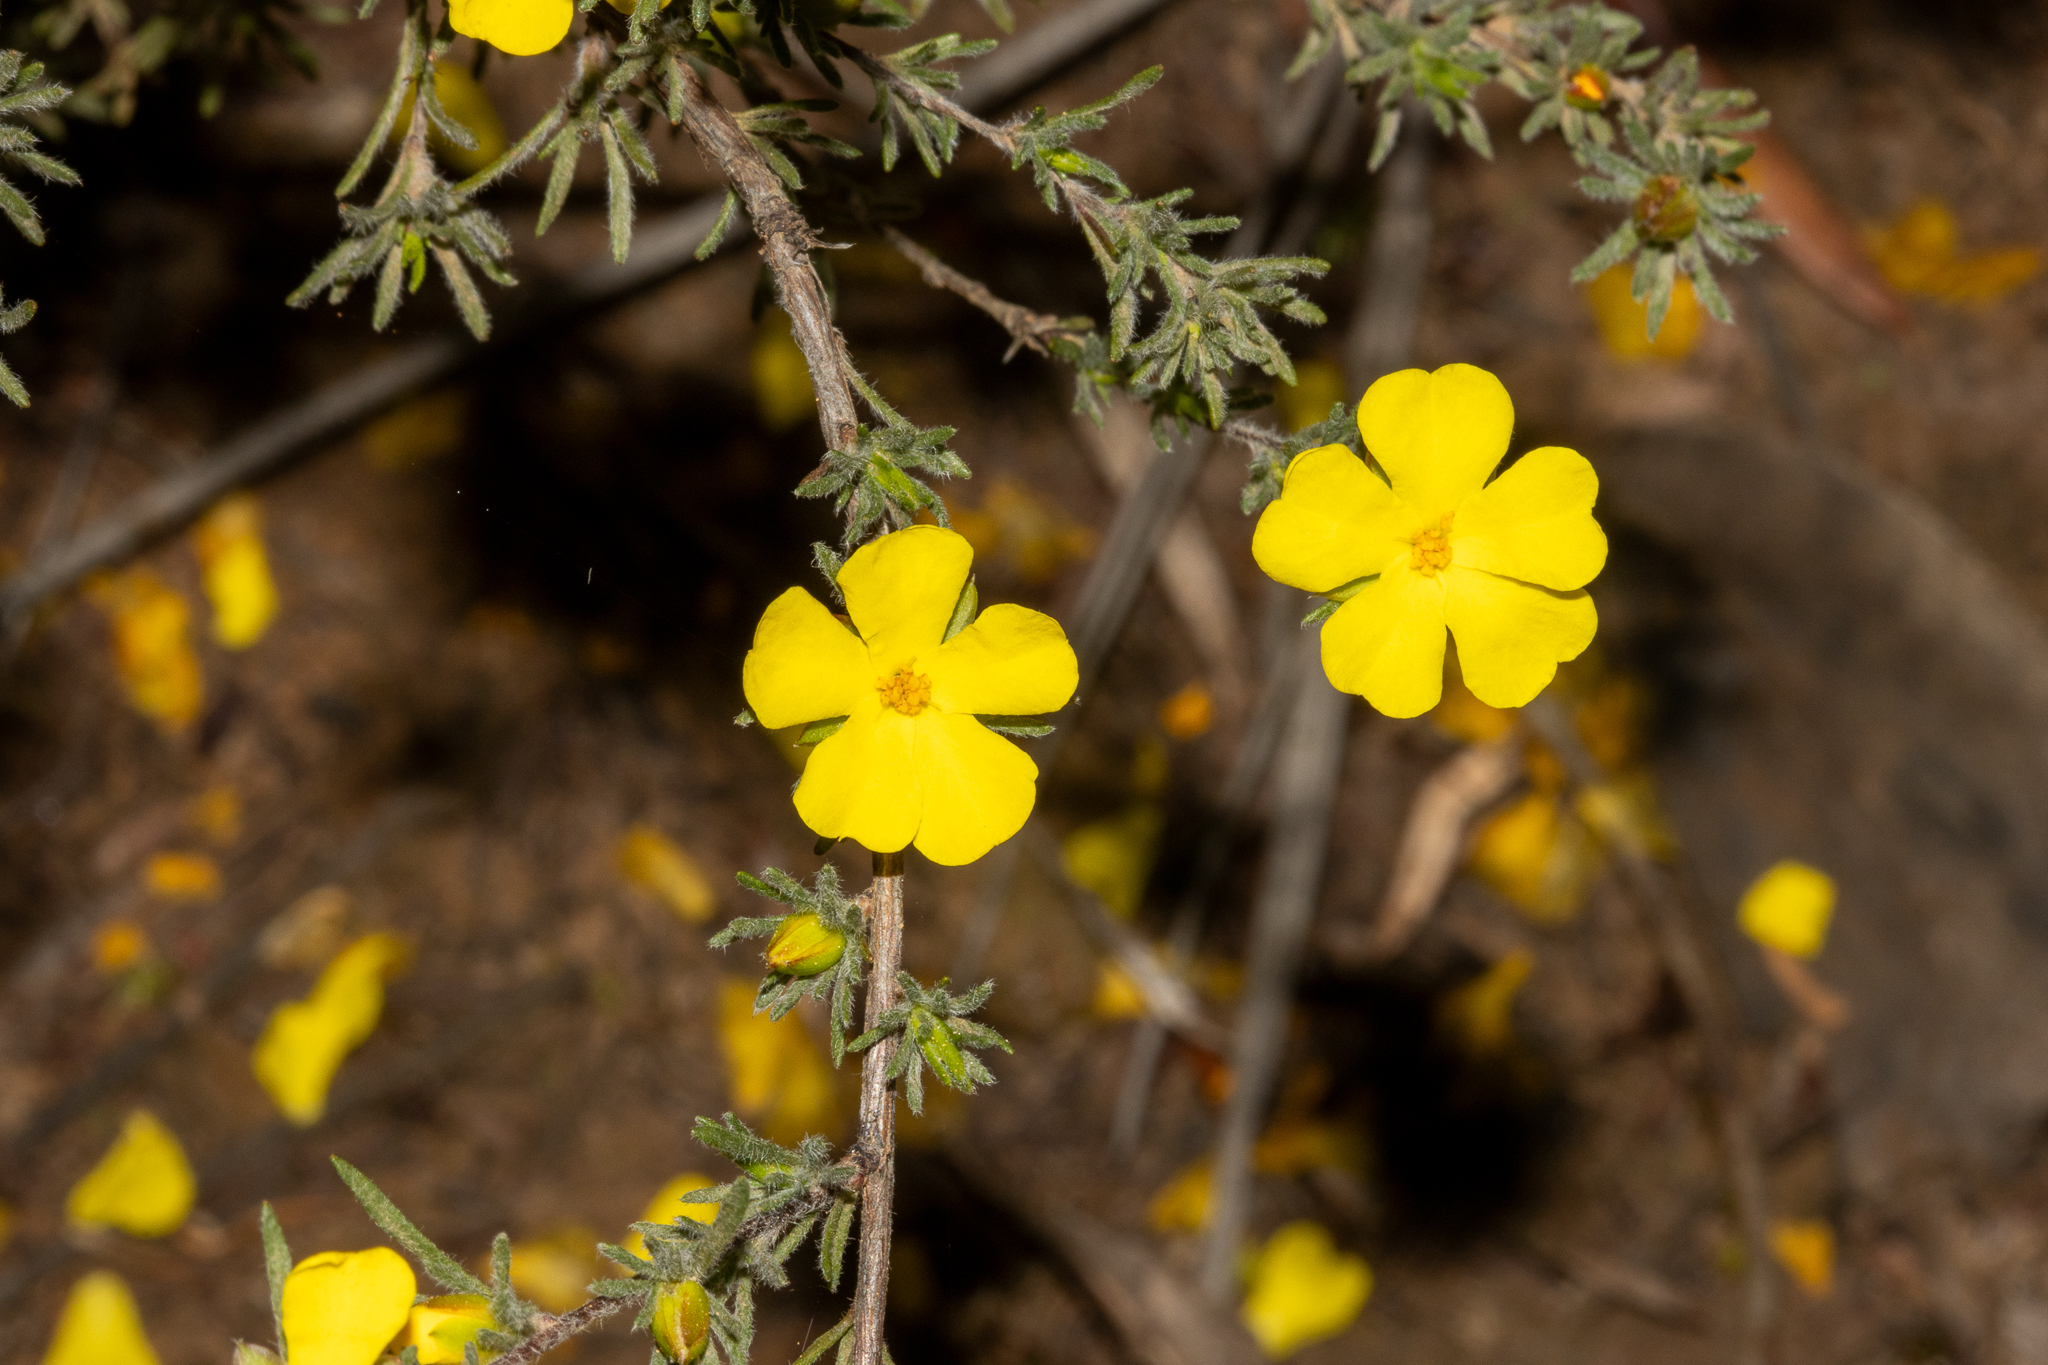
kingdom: Plantae
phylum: Tracheophyta
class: Magnoliopsida
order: Dilleniales
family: Dilleniaceae
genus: Hibbertia
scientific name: Hibbertia fasciculata
